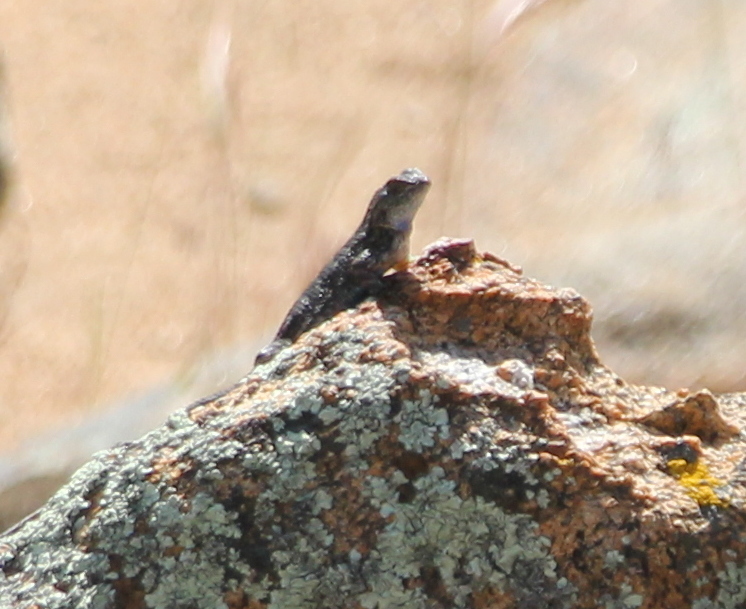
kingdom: Animalia
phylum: Chordata
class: Squamata
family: Phrynosomatidae
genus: Sceloporus
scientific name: Sceloporus occidentalis
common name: Western fence lizard
